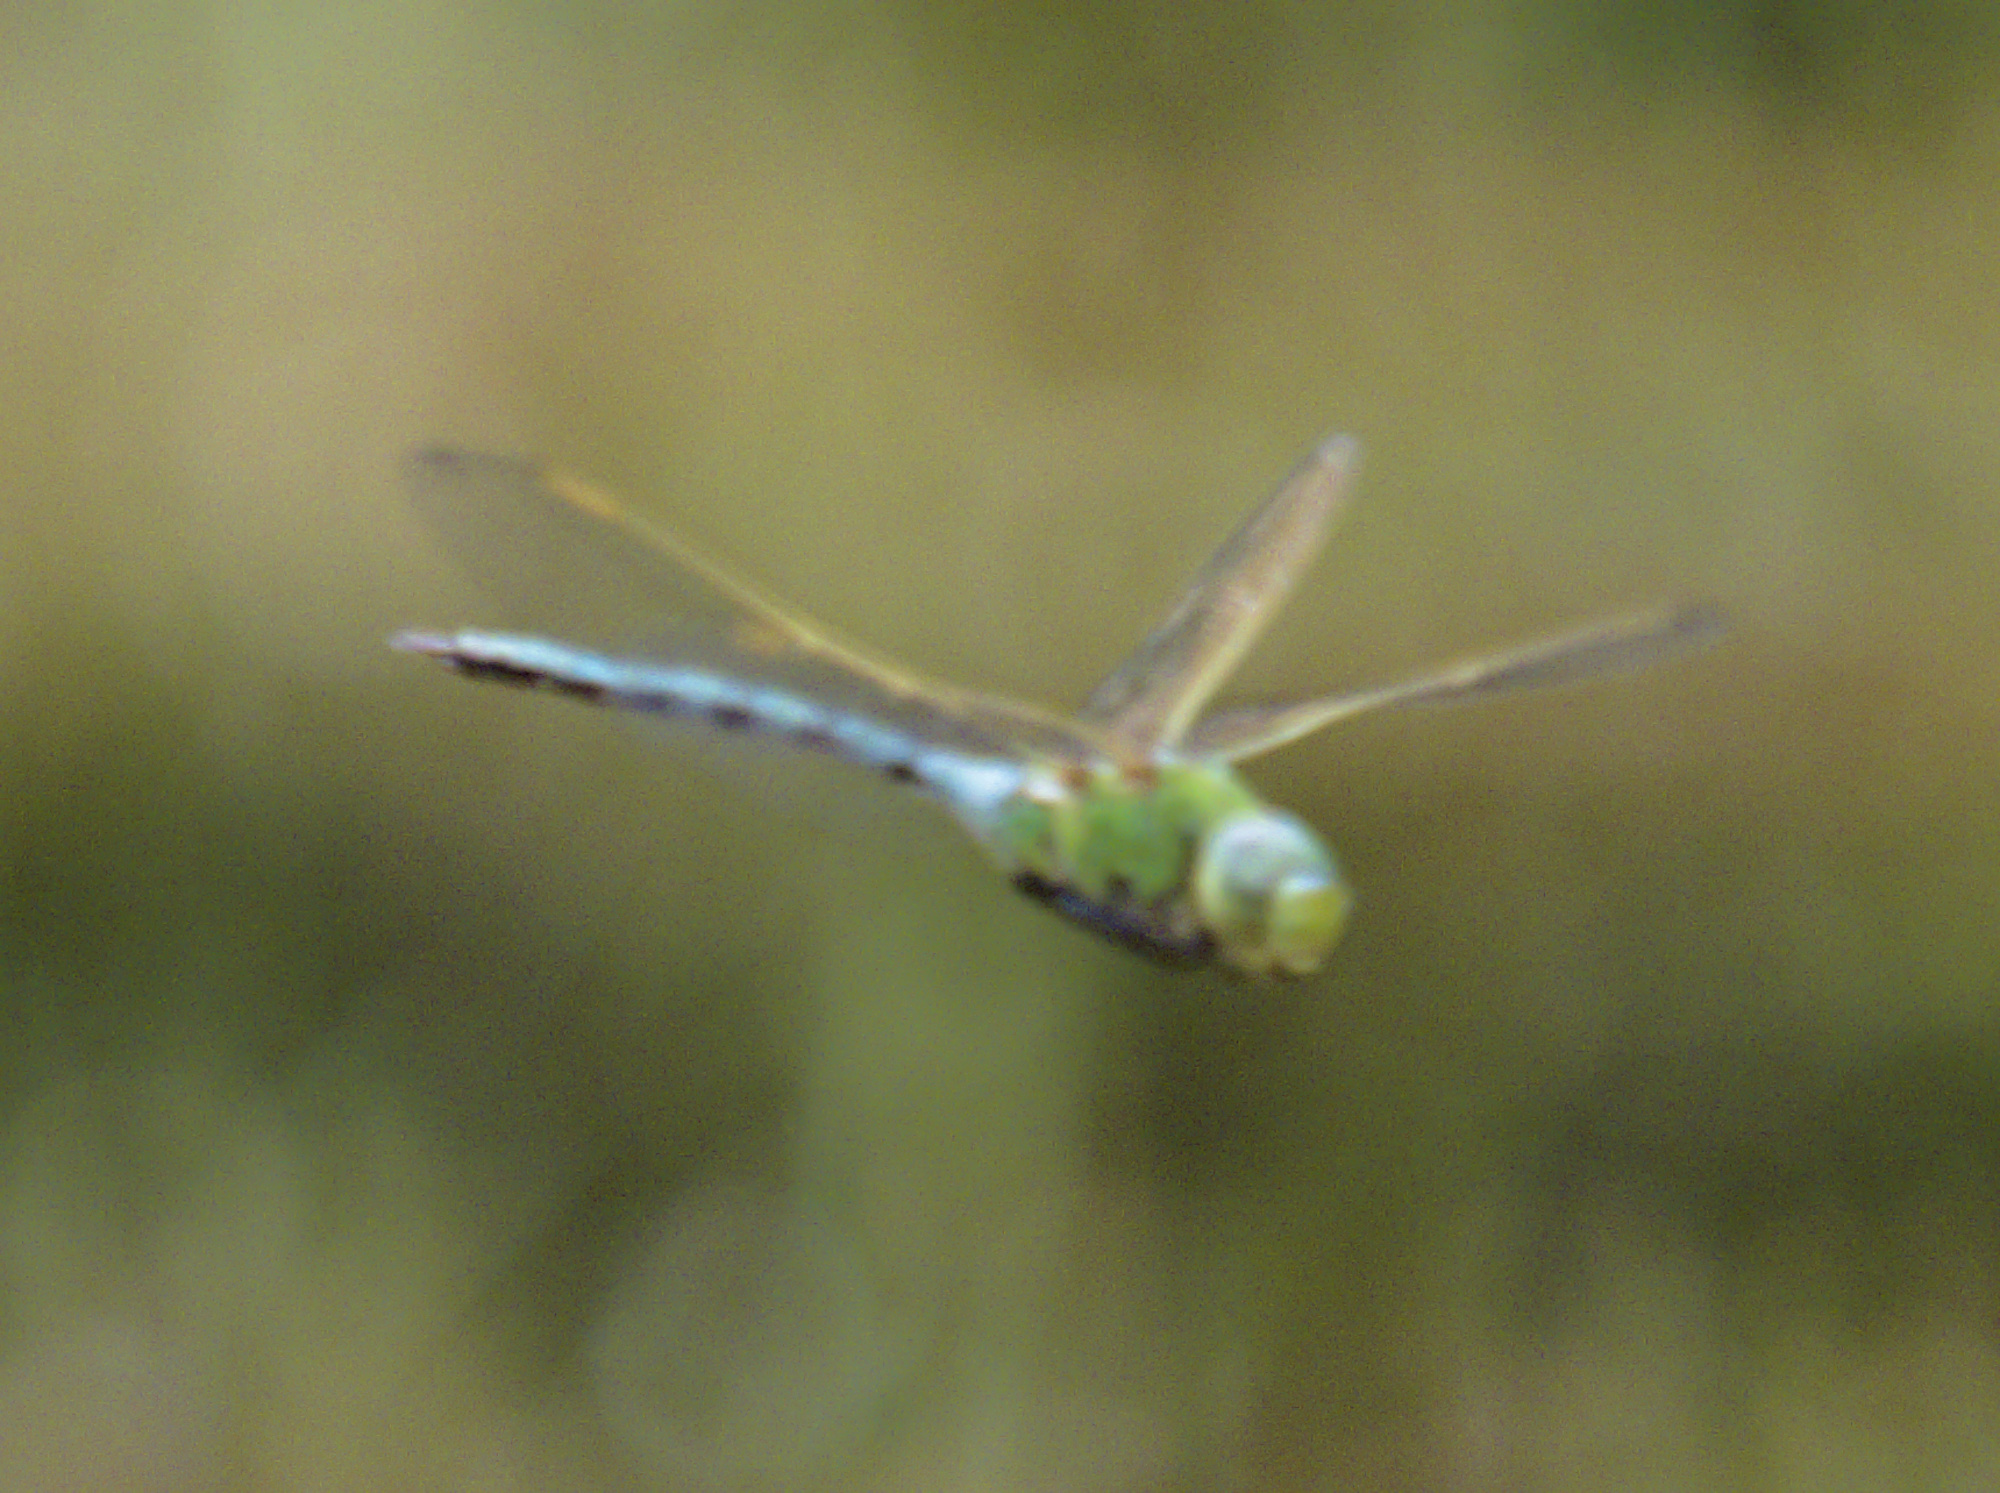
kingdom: Animalia
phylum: Arthropoda
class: Insecta
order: Odonata
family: Aeshnidae
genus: Anax
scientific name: Anax imperator
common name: Emperor dragonfly
